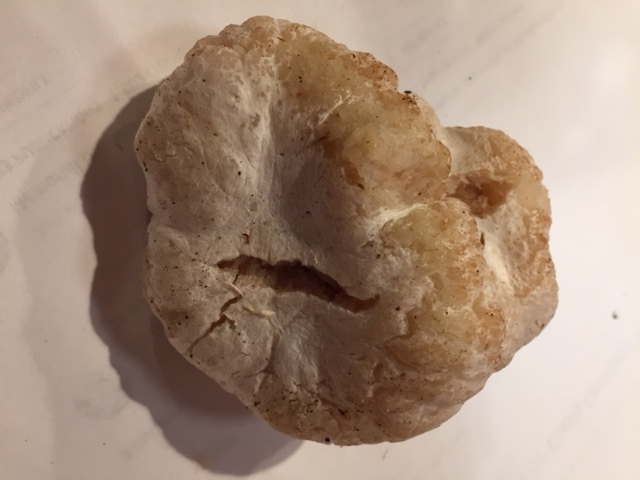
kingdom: Fungi
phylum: Basidiomycota
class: Agaricomycetes
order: Agaricales
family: Entolomataceae
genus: Entoloma
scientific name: Entoloma abortivum
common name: Aborted entoloma
